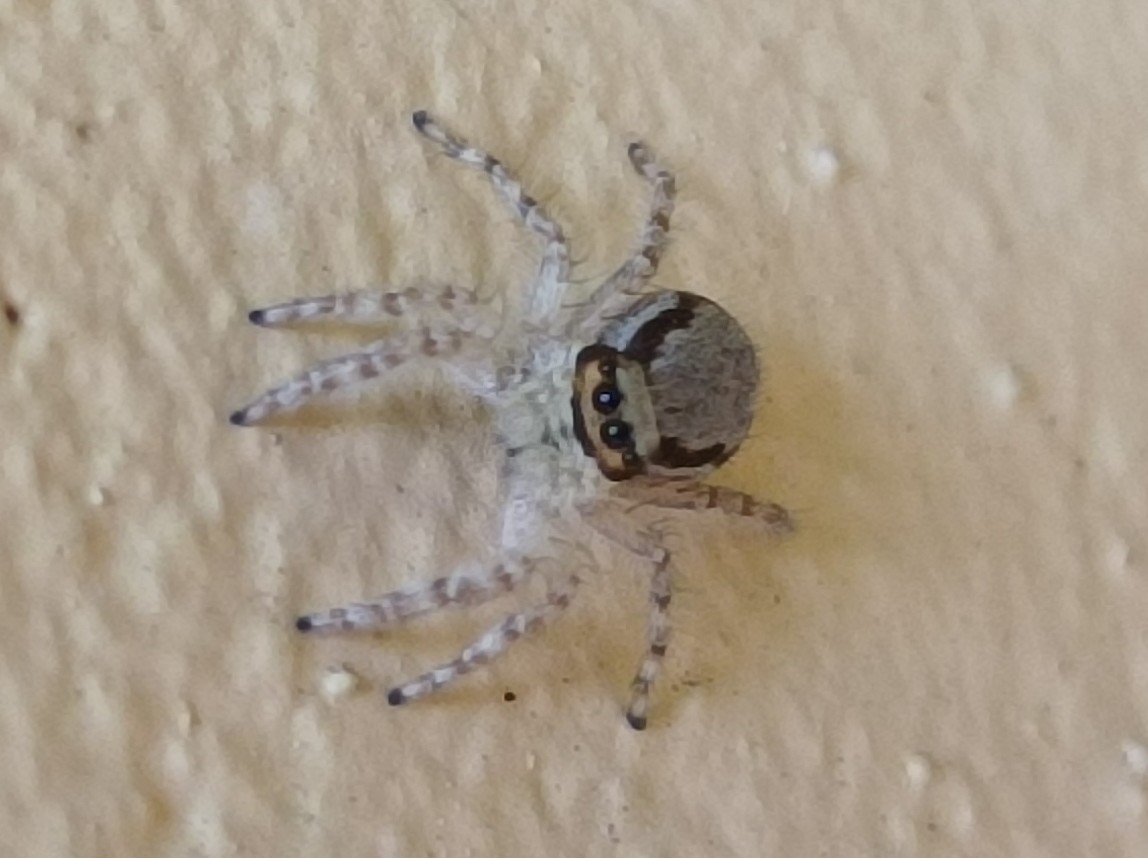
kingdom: Animalia
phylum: Arthropoda
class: Arachnida
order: Araneae
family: Salticidae
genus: Menemerus
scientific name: Menemerus bivittatus
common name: Gray wall jumper
